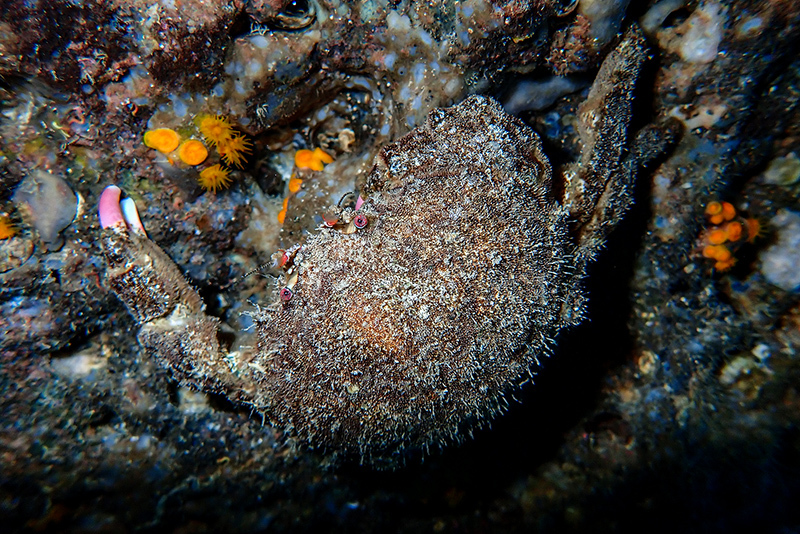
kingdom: Animalia
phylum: Arthropoda
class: Malacostraca
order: Decapoda
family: Dromiidae
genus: Dromia
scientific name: Dromia personata
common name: Sleepy crab
